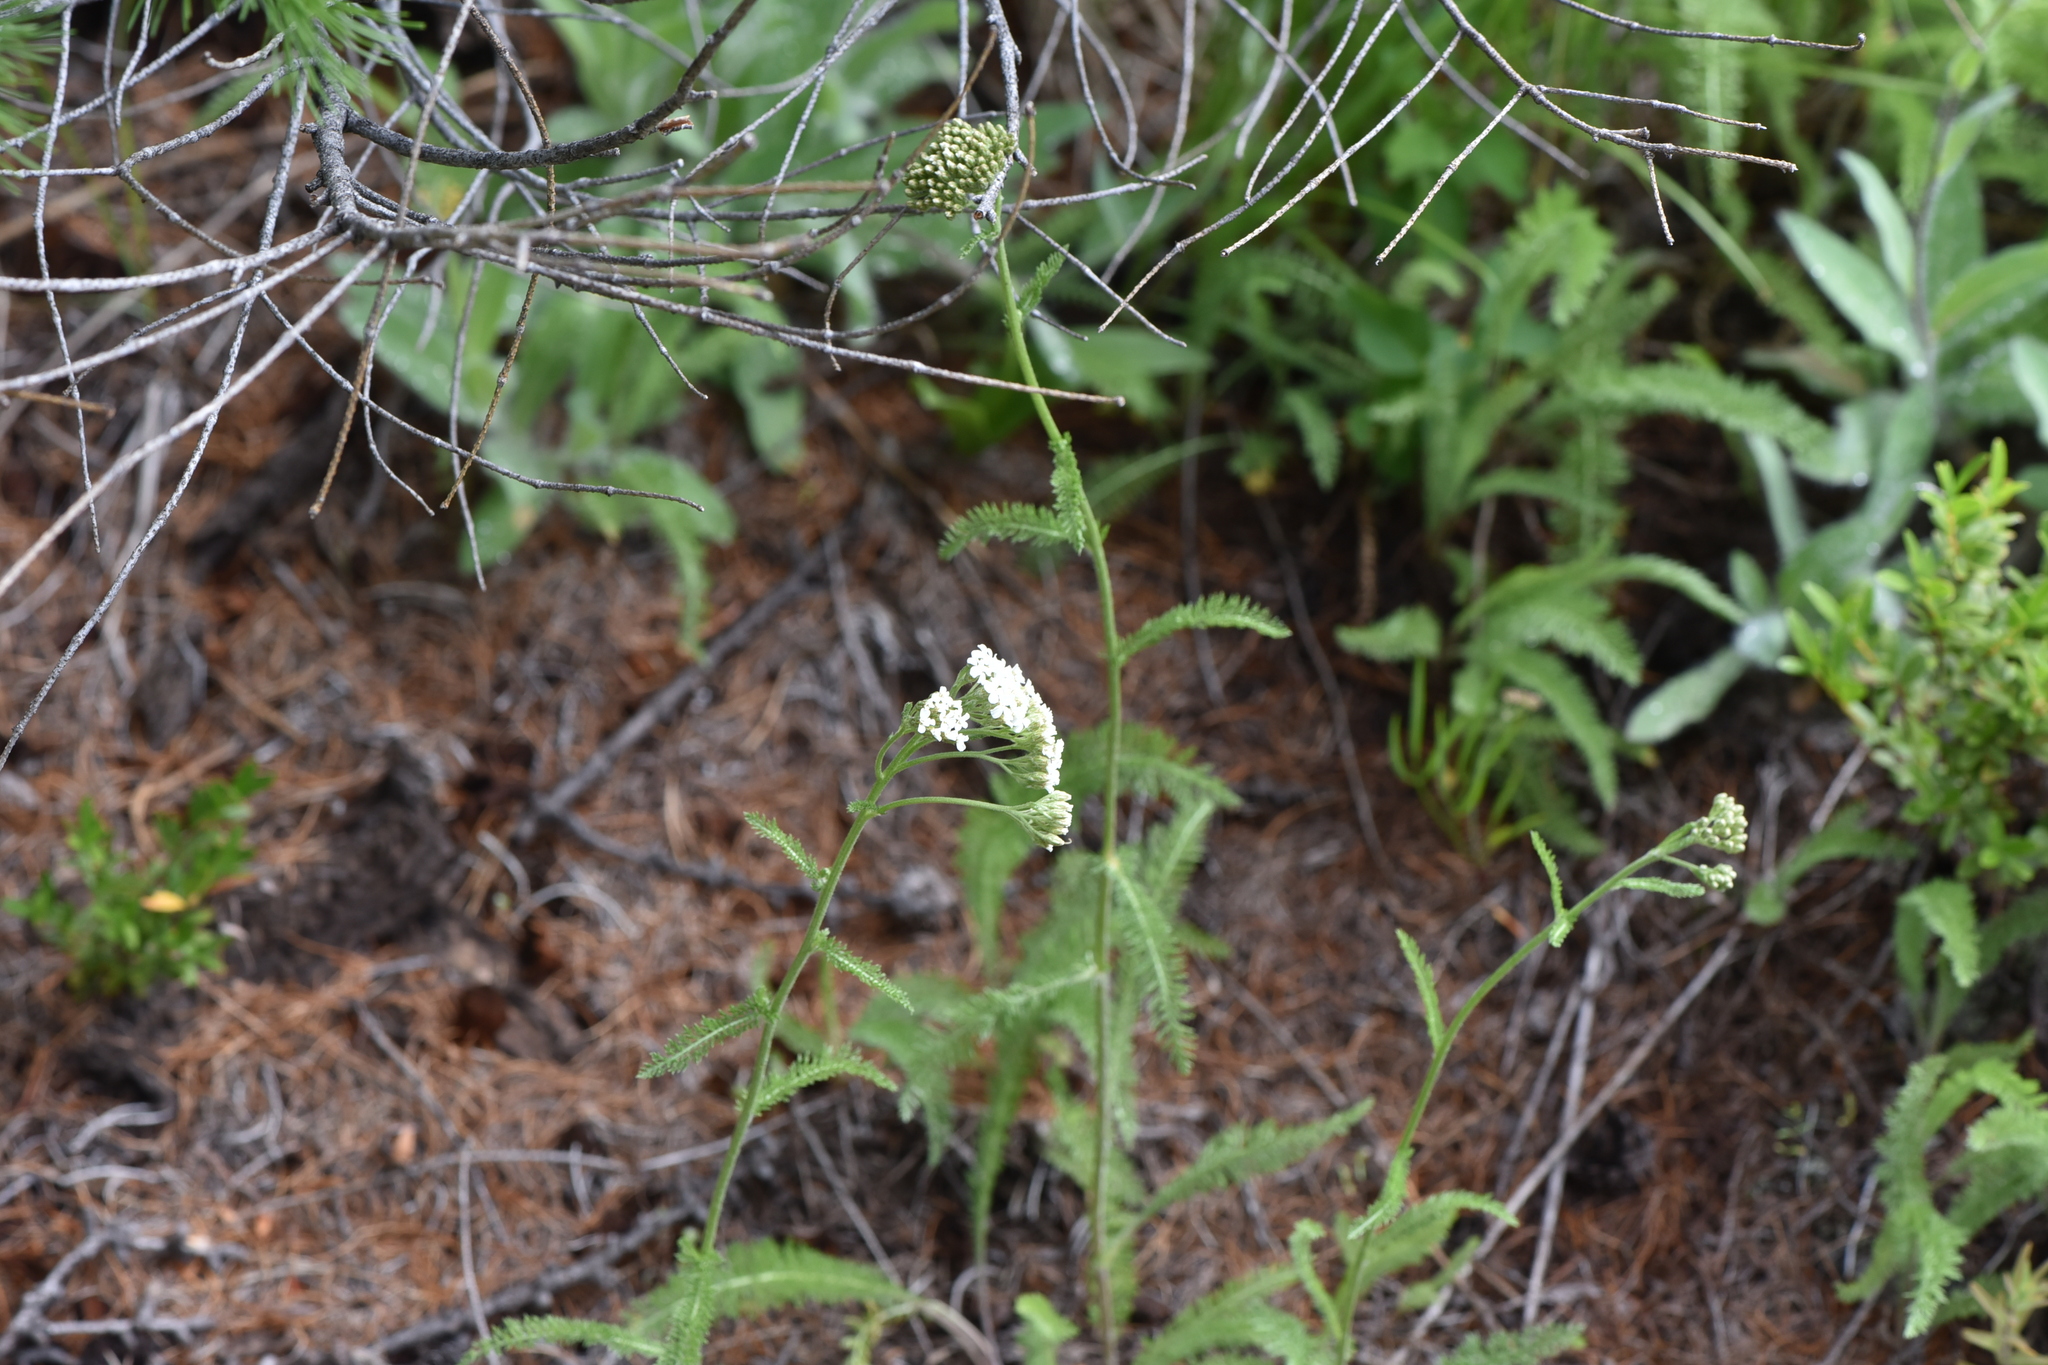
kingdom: Plantae
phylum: Tracheophyta
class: Magnoliopsida
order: Asterales
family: Asteraceae
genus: Achillea
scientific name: Achillea millefolium
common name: Yarrow
